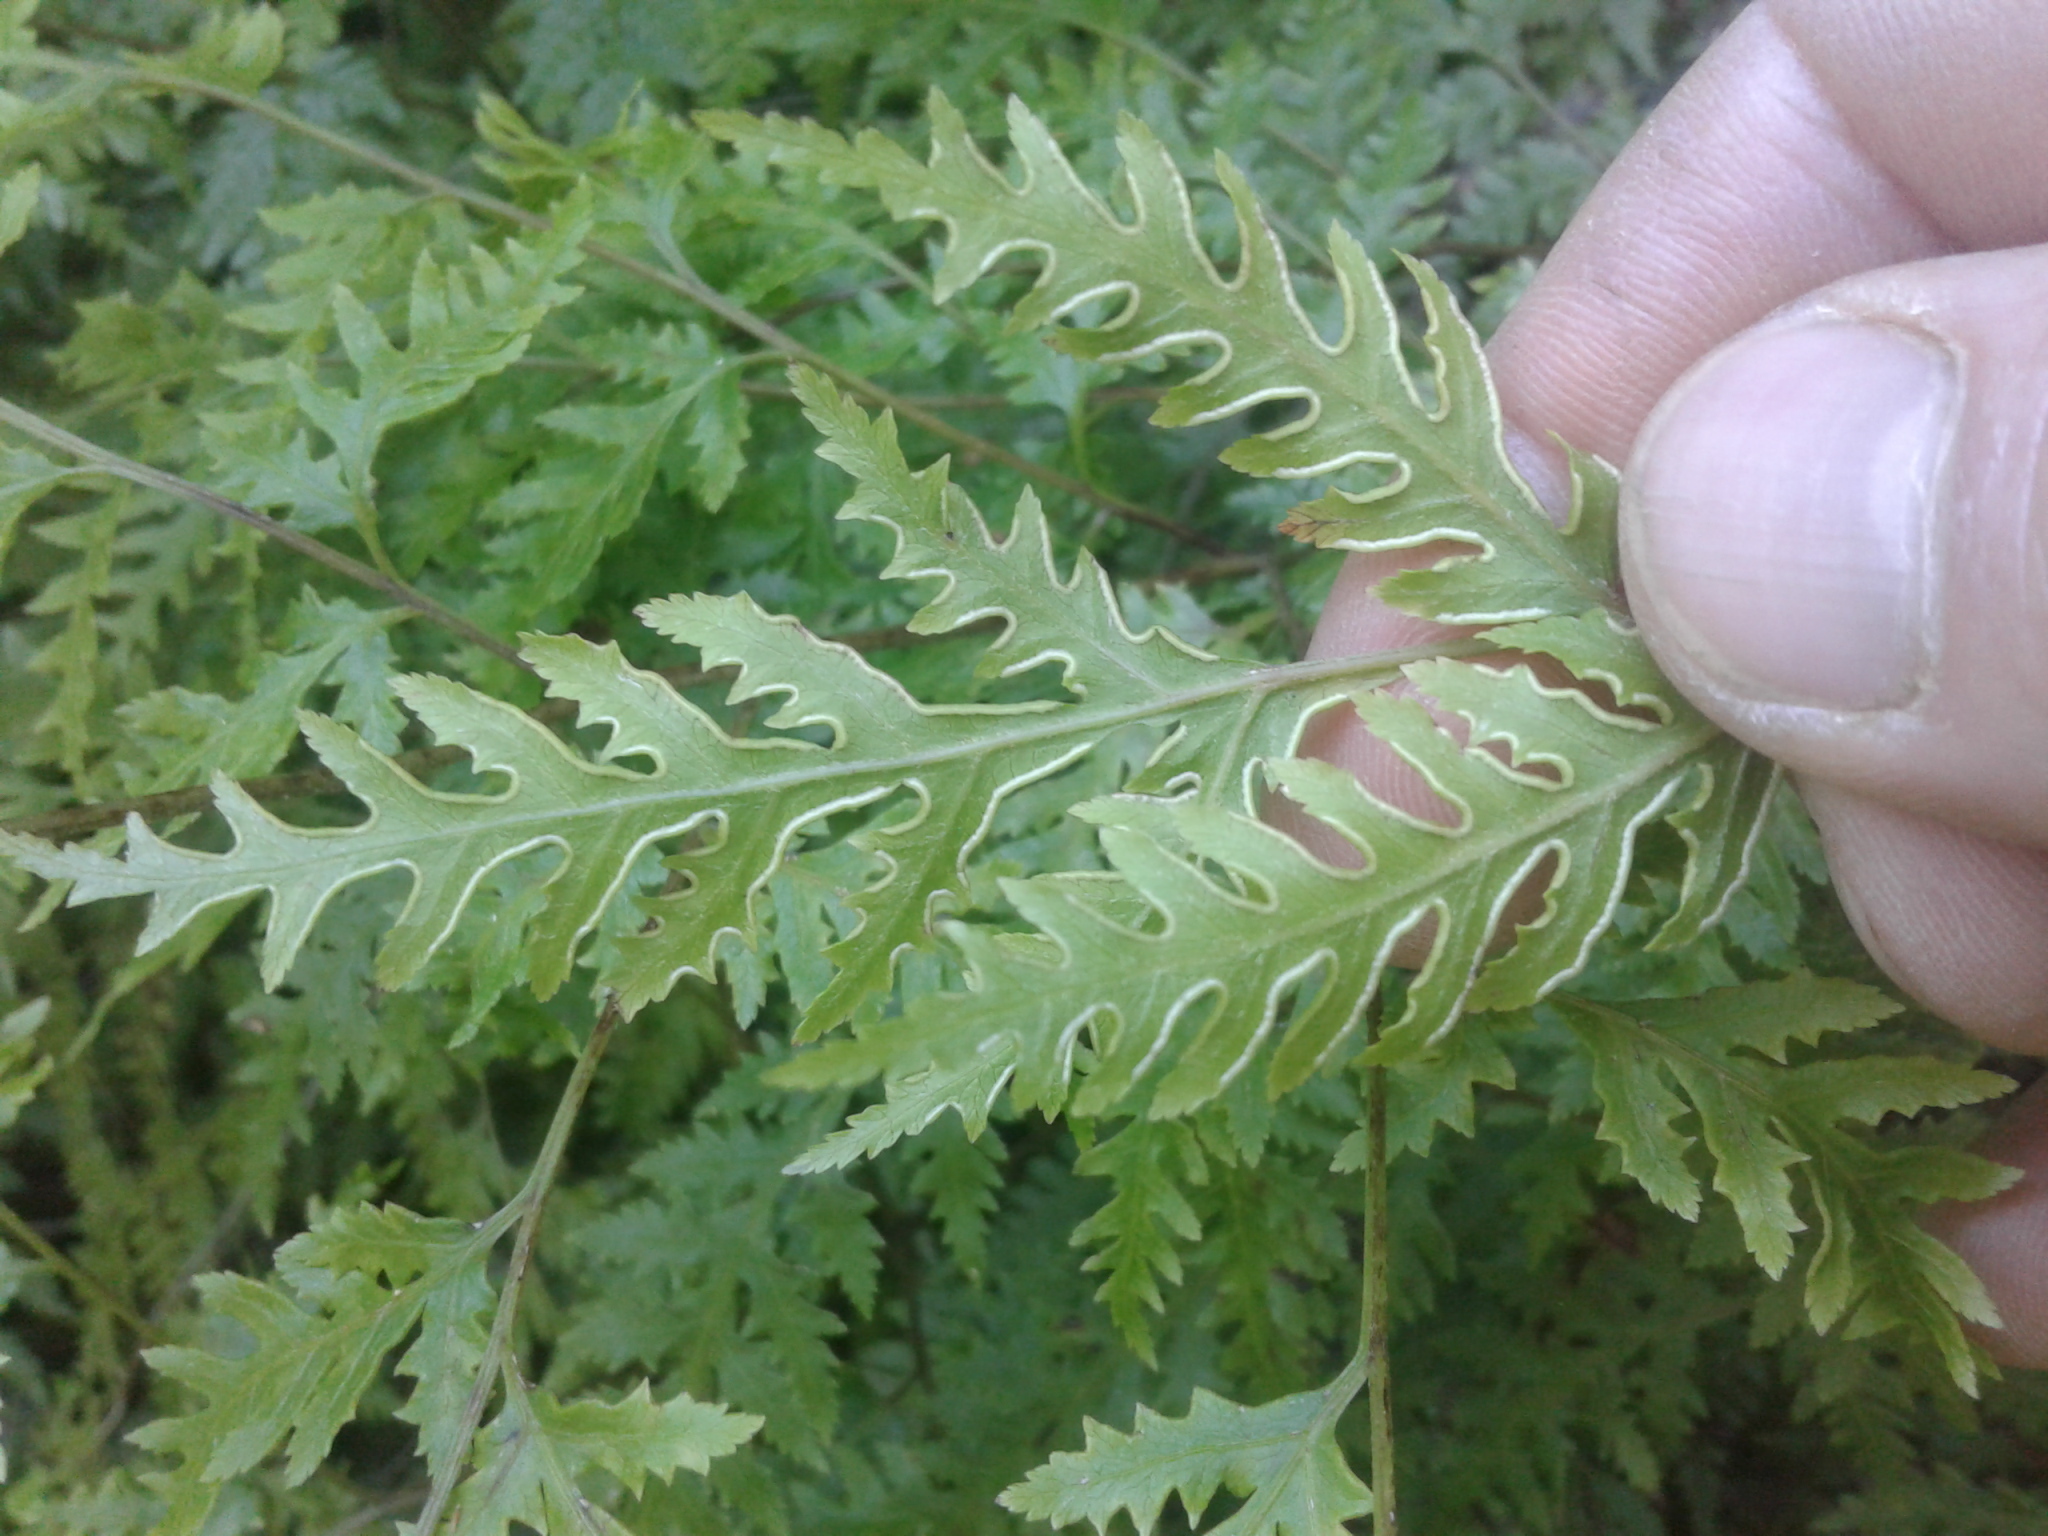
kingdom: Plantae
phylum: Tracheophyta
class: Polypodiopsida
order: Polypodiales
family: Pteridaceae
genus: Pteris
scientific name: Pteris macilenta
